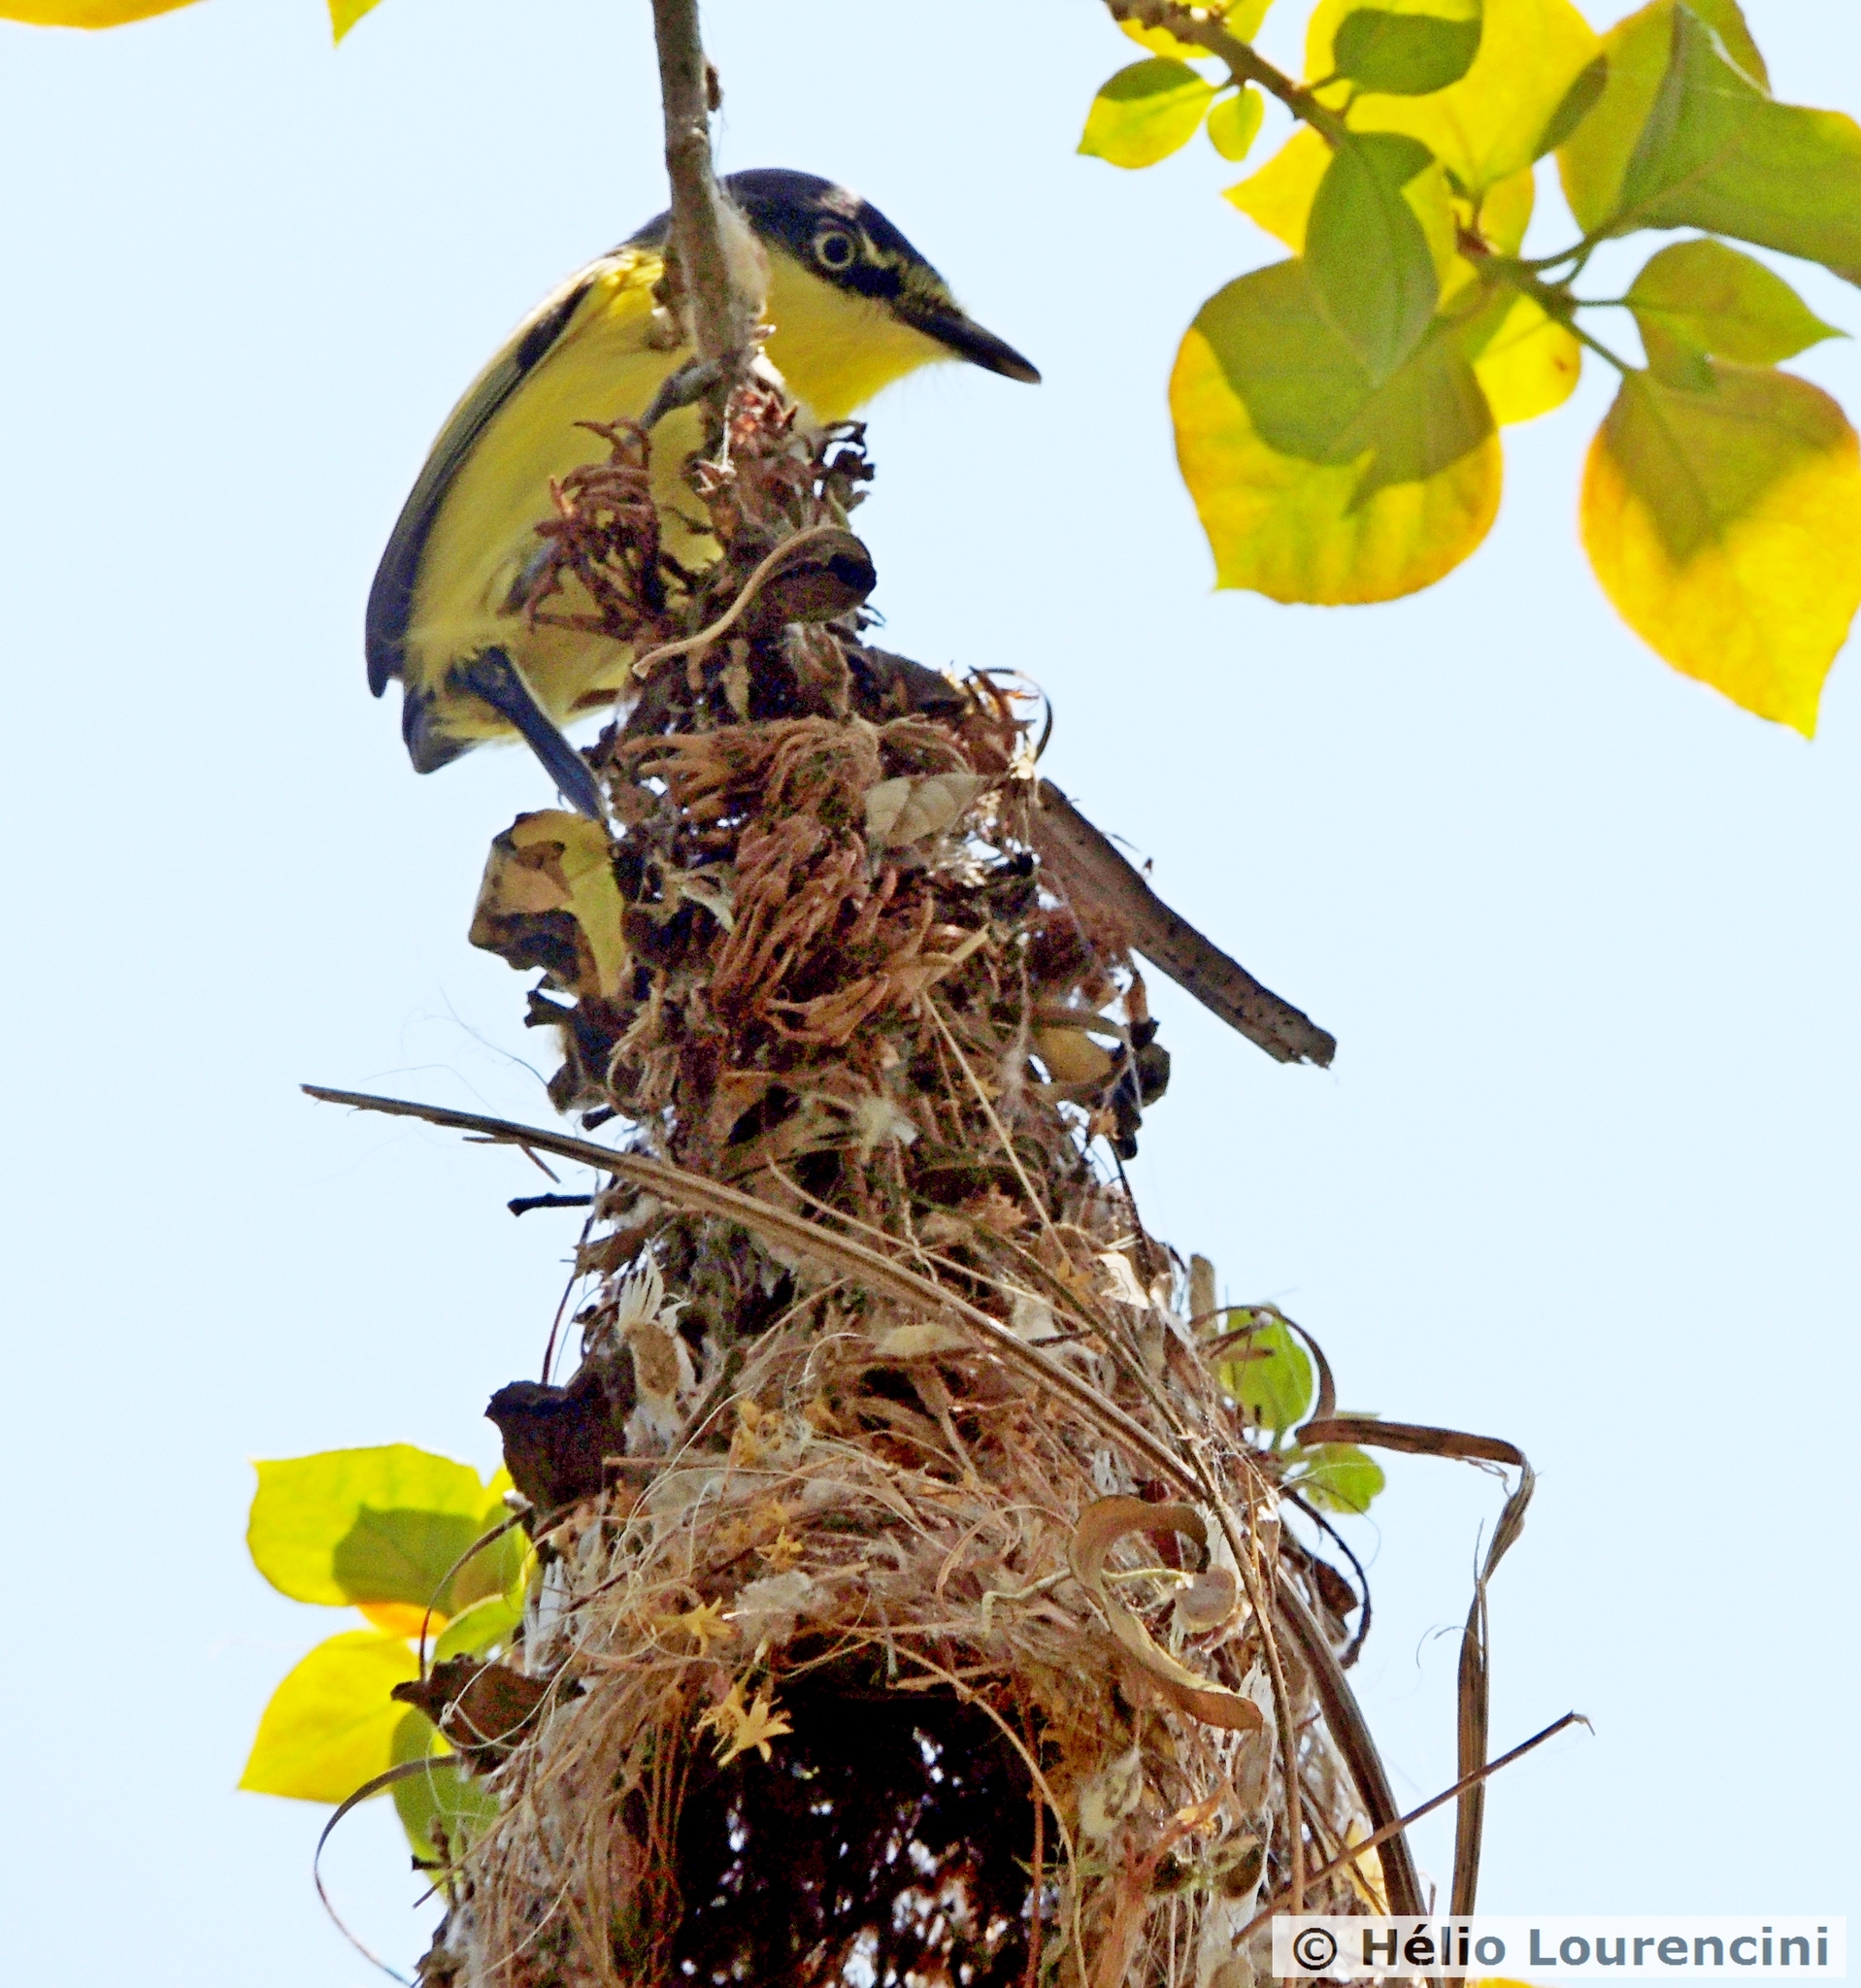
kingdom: Animalia
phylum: Chordata
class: Aves
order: Passeriformes
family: Tyrannidae
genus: Todirostrum
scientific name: Todirostrum cinereum
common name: Common tody-flycatcher
